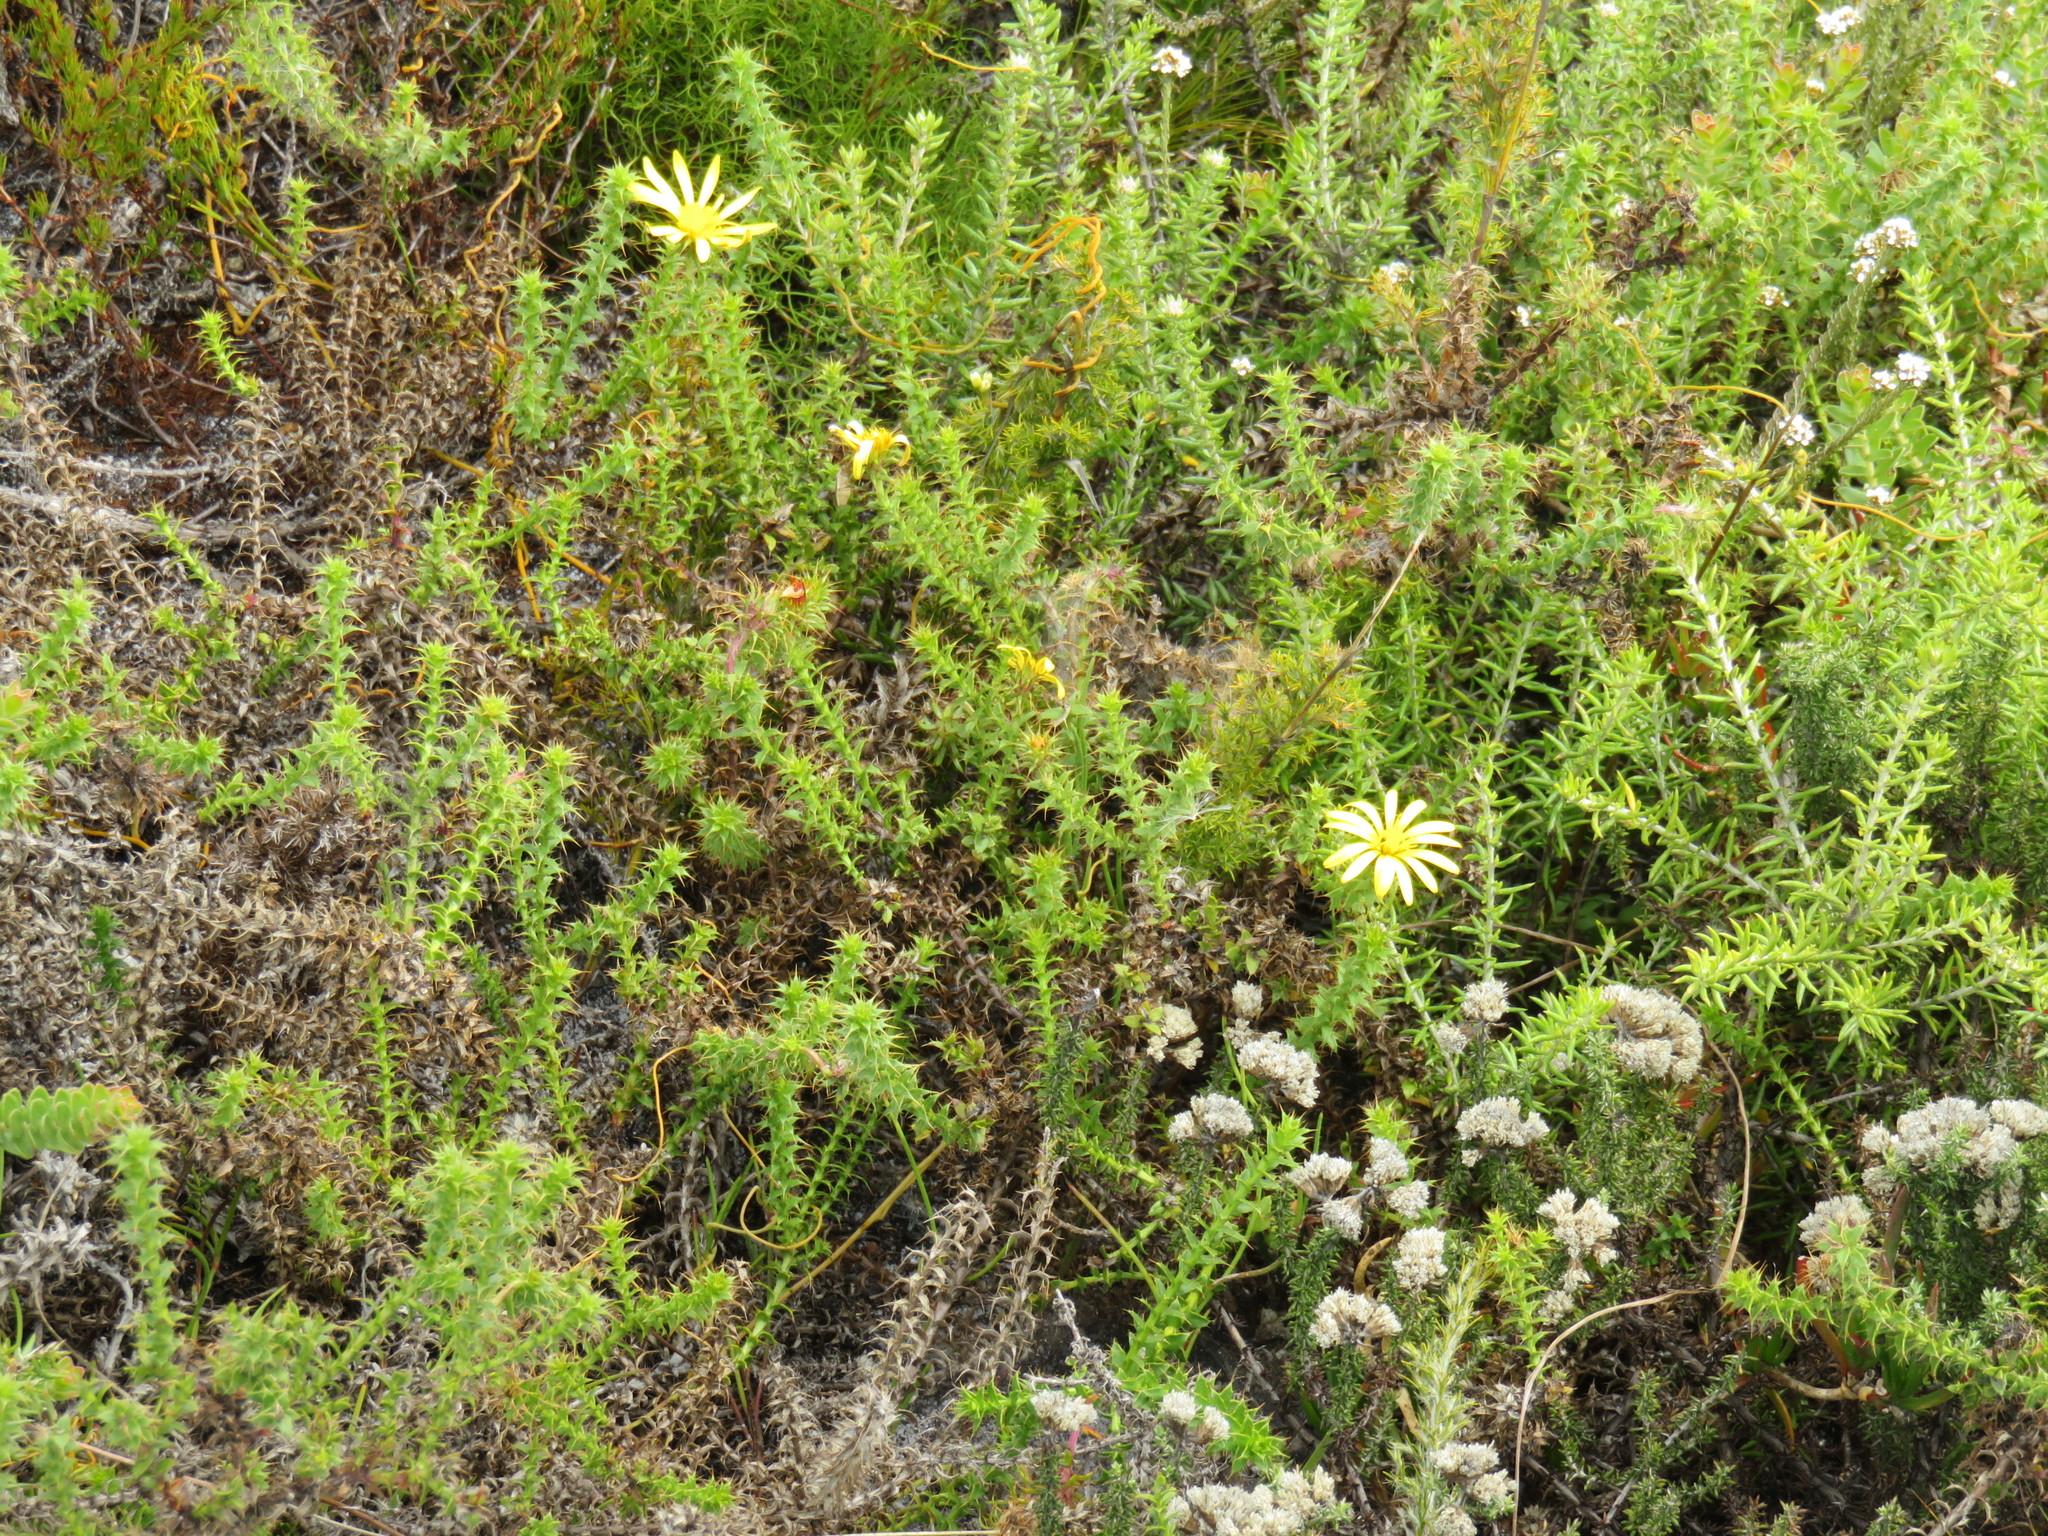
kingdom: Plantae
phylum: Tracheophyta
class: Magnoliopsida
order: Asterales
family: Asteraceae
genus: Cullumia
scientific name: Cullumia setosa
